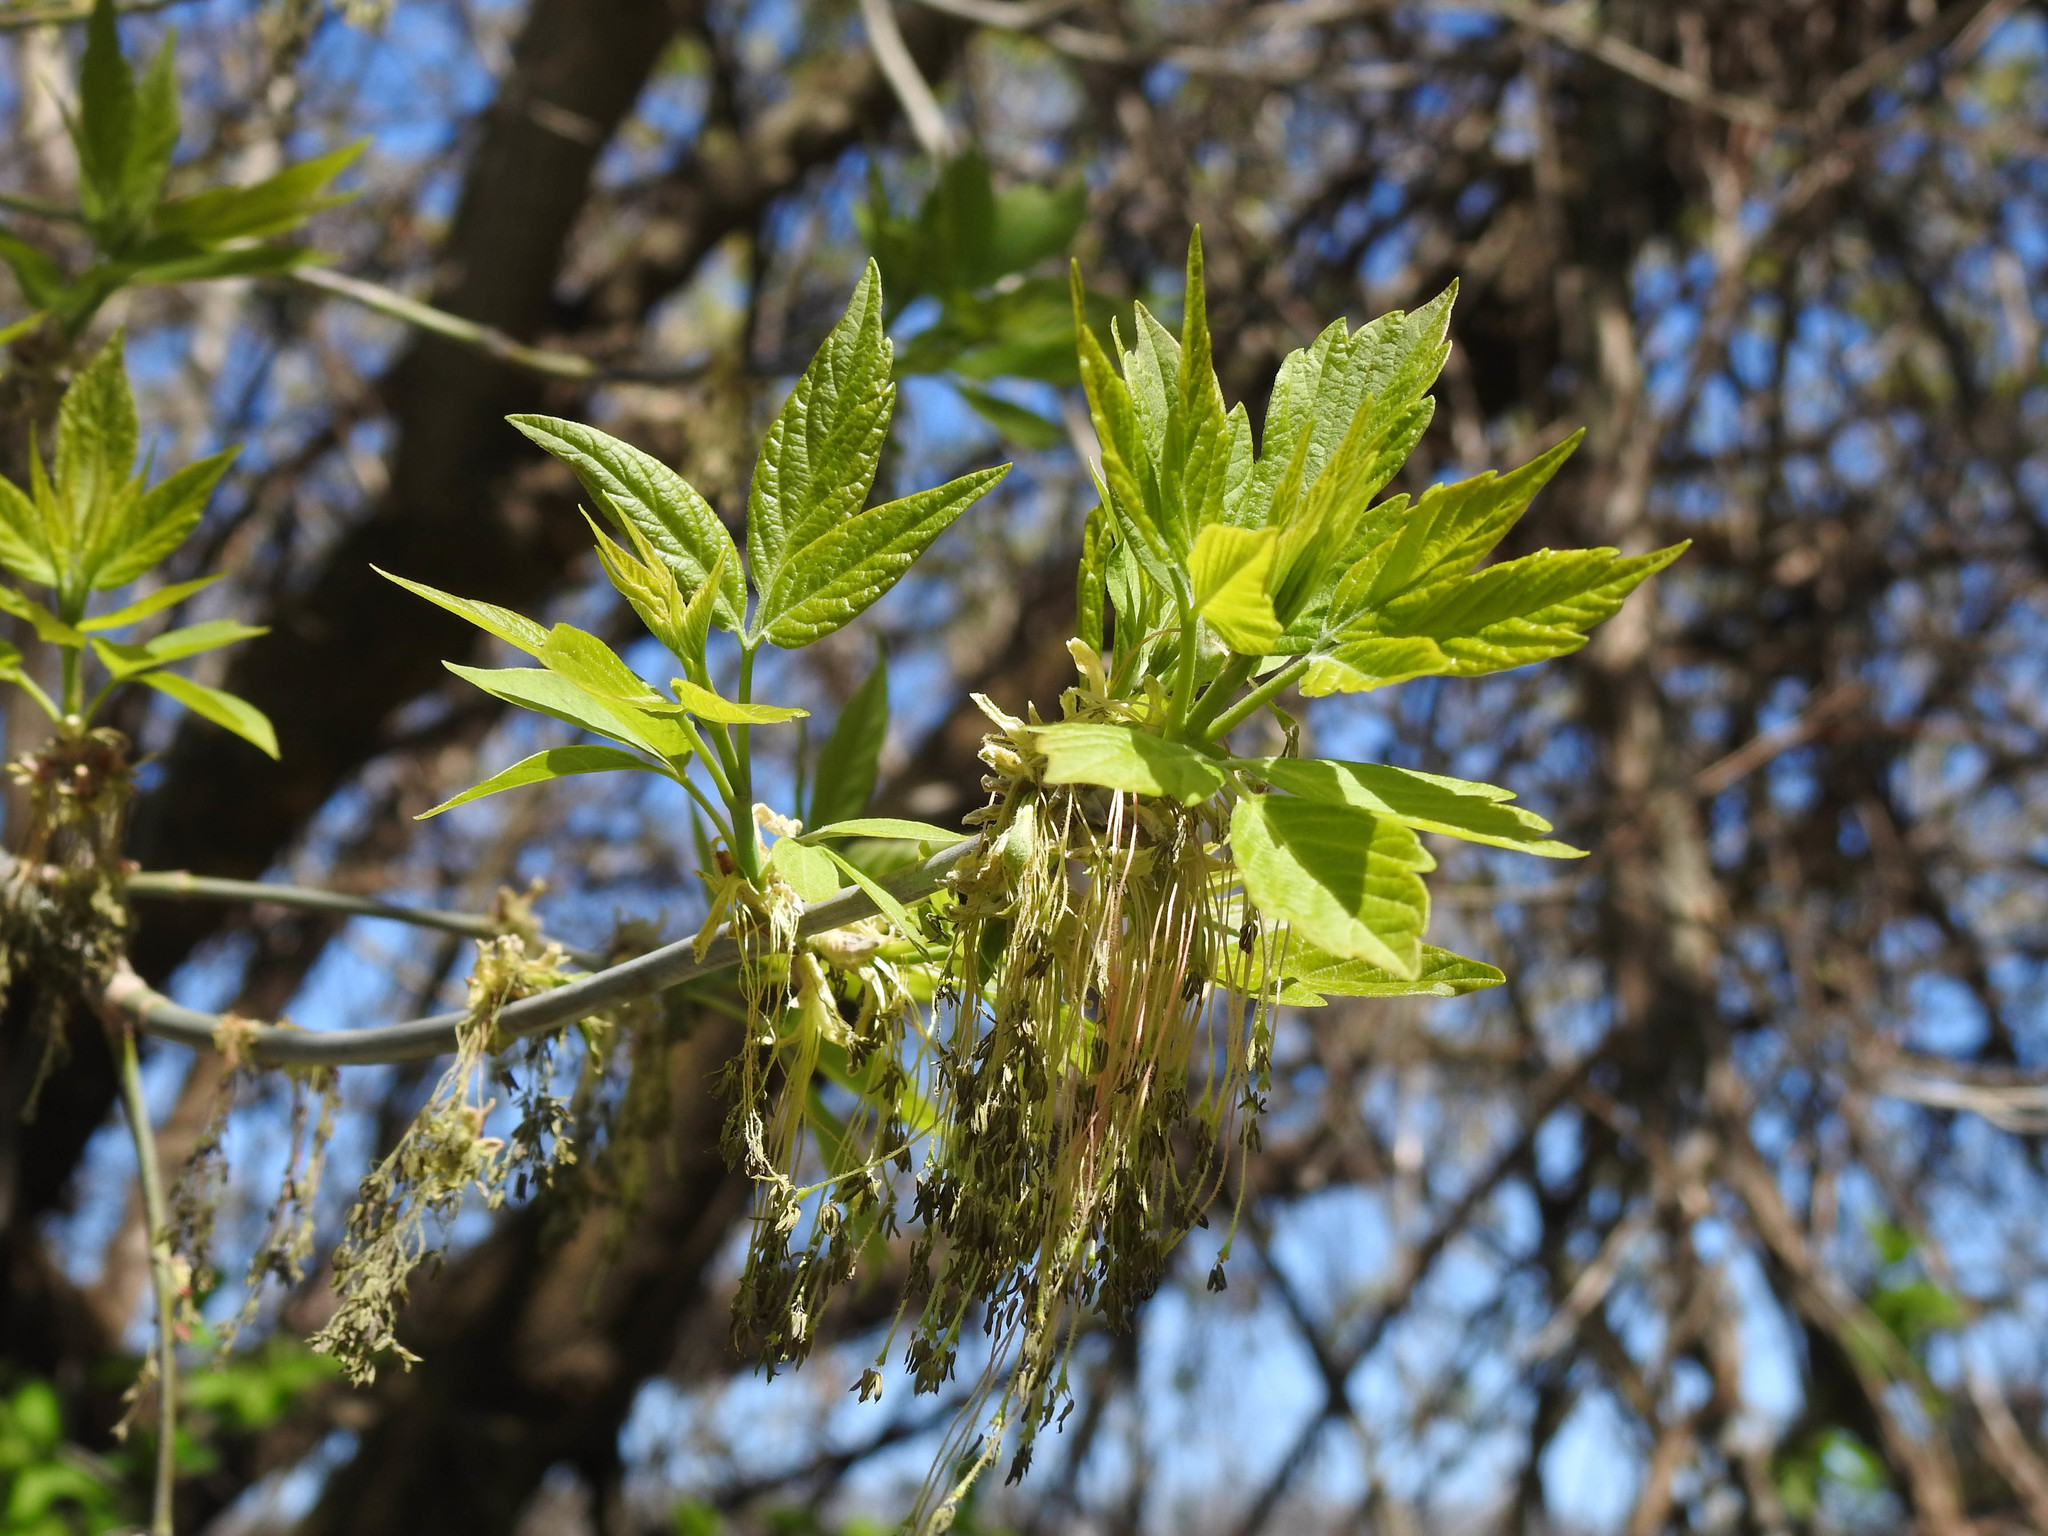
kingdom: Plantae
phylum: Tracheophyta
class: Magnoliopsida
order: Sapindales
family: Sapindaceae
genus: Acer
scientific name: Acer negundo
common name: Ashleaf maple
